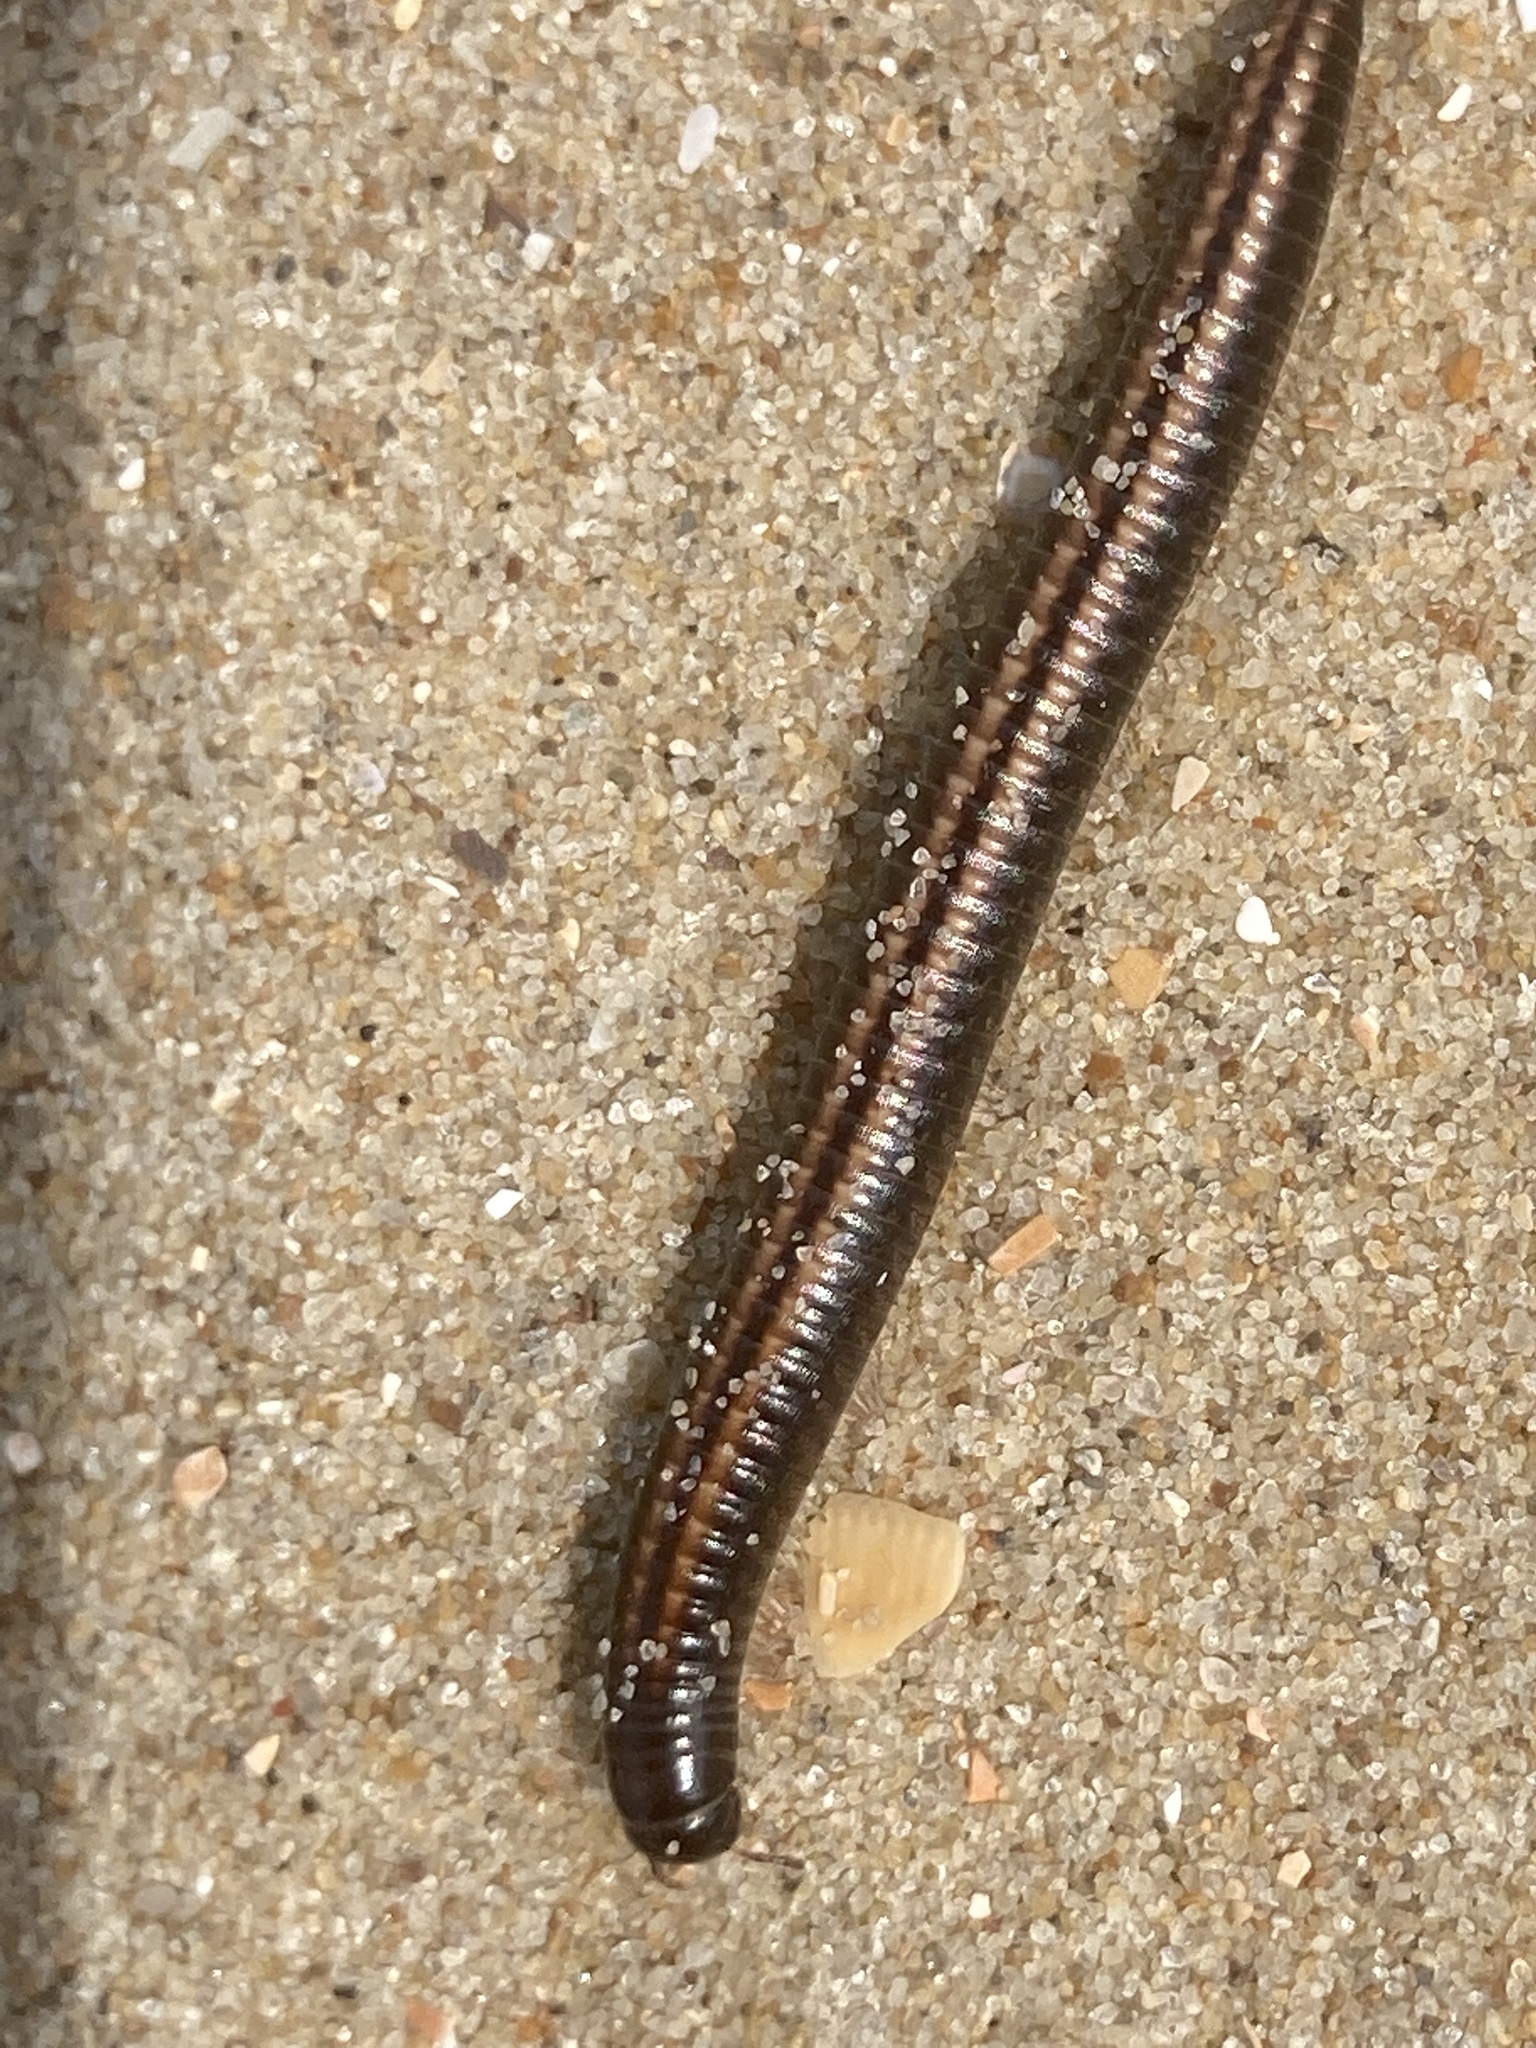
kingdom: Animalia
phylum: Arthropoda
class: Diplopoda
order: Julida
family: Julidae
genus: Ommatoiulus
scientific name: Ommatoiulus sabulosus
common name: Striped millipede
